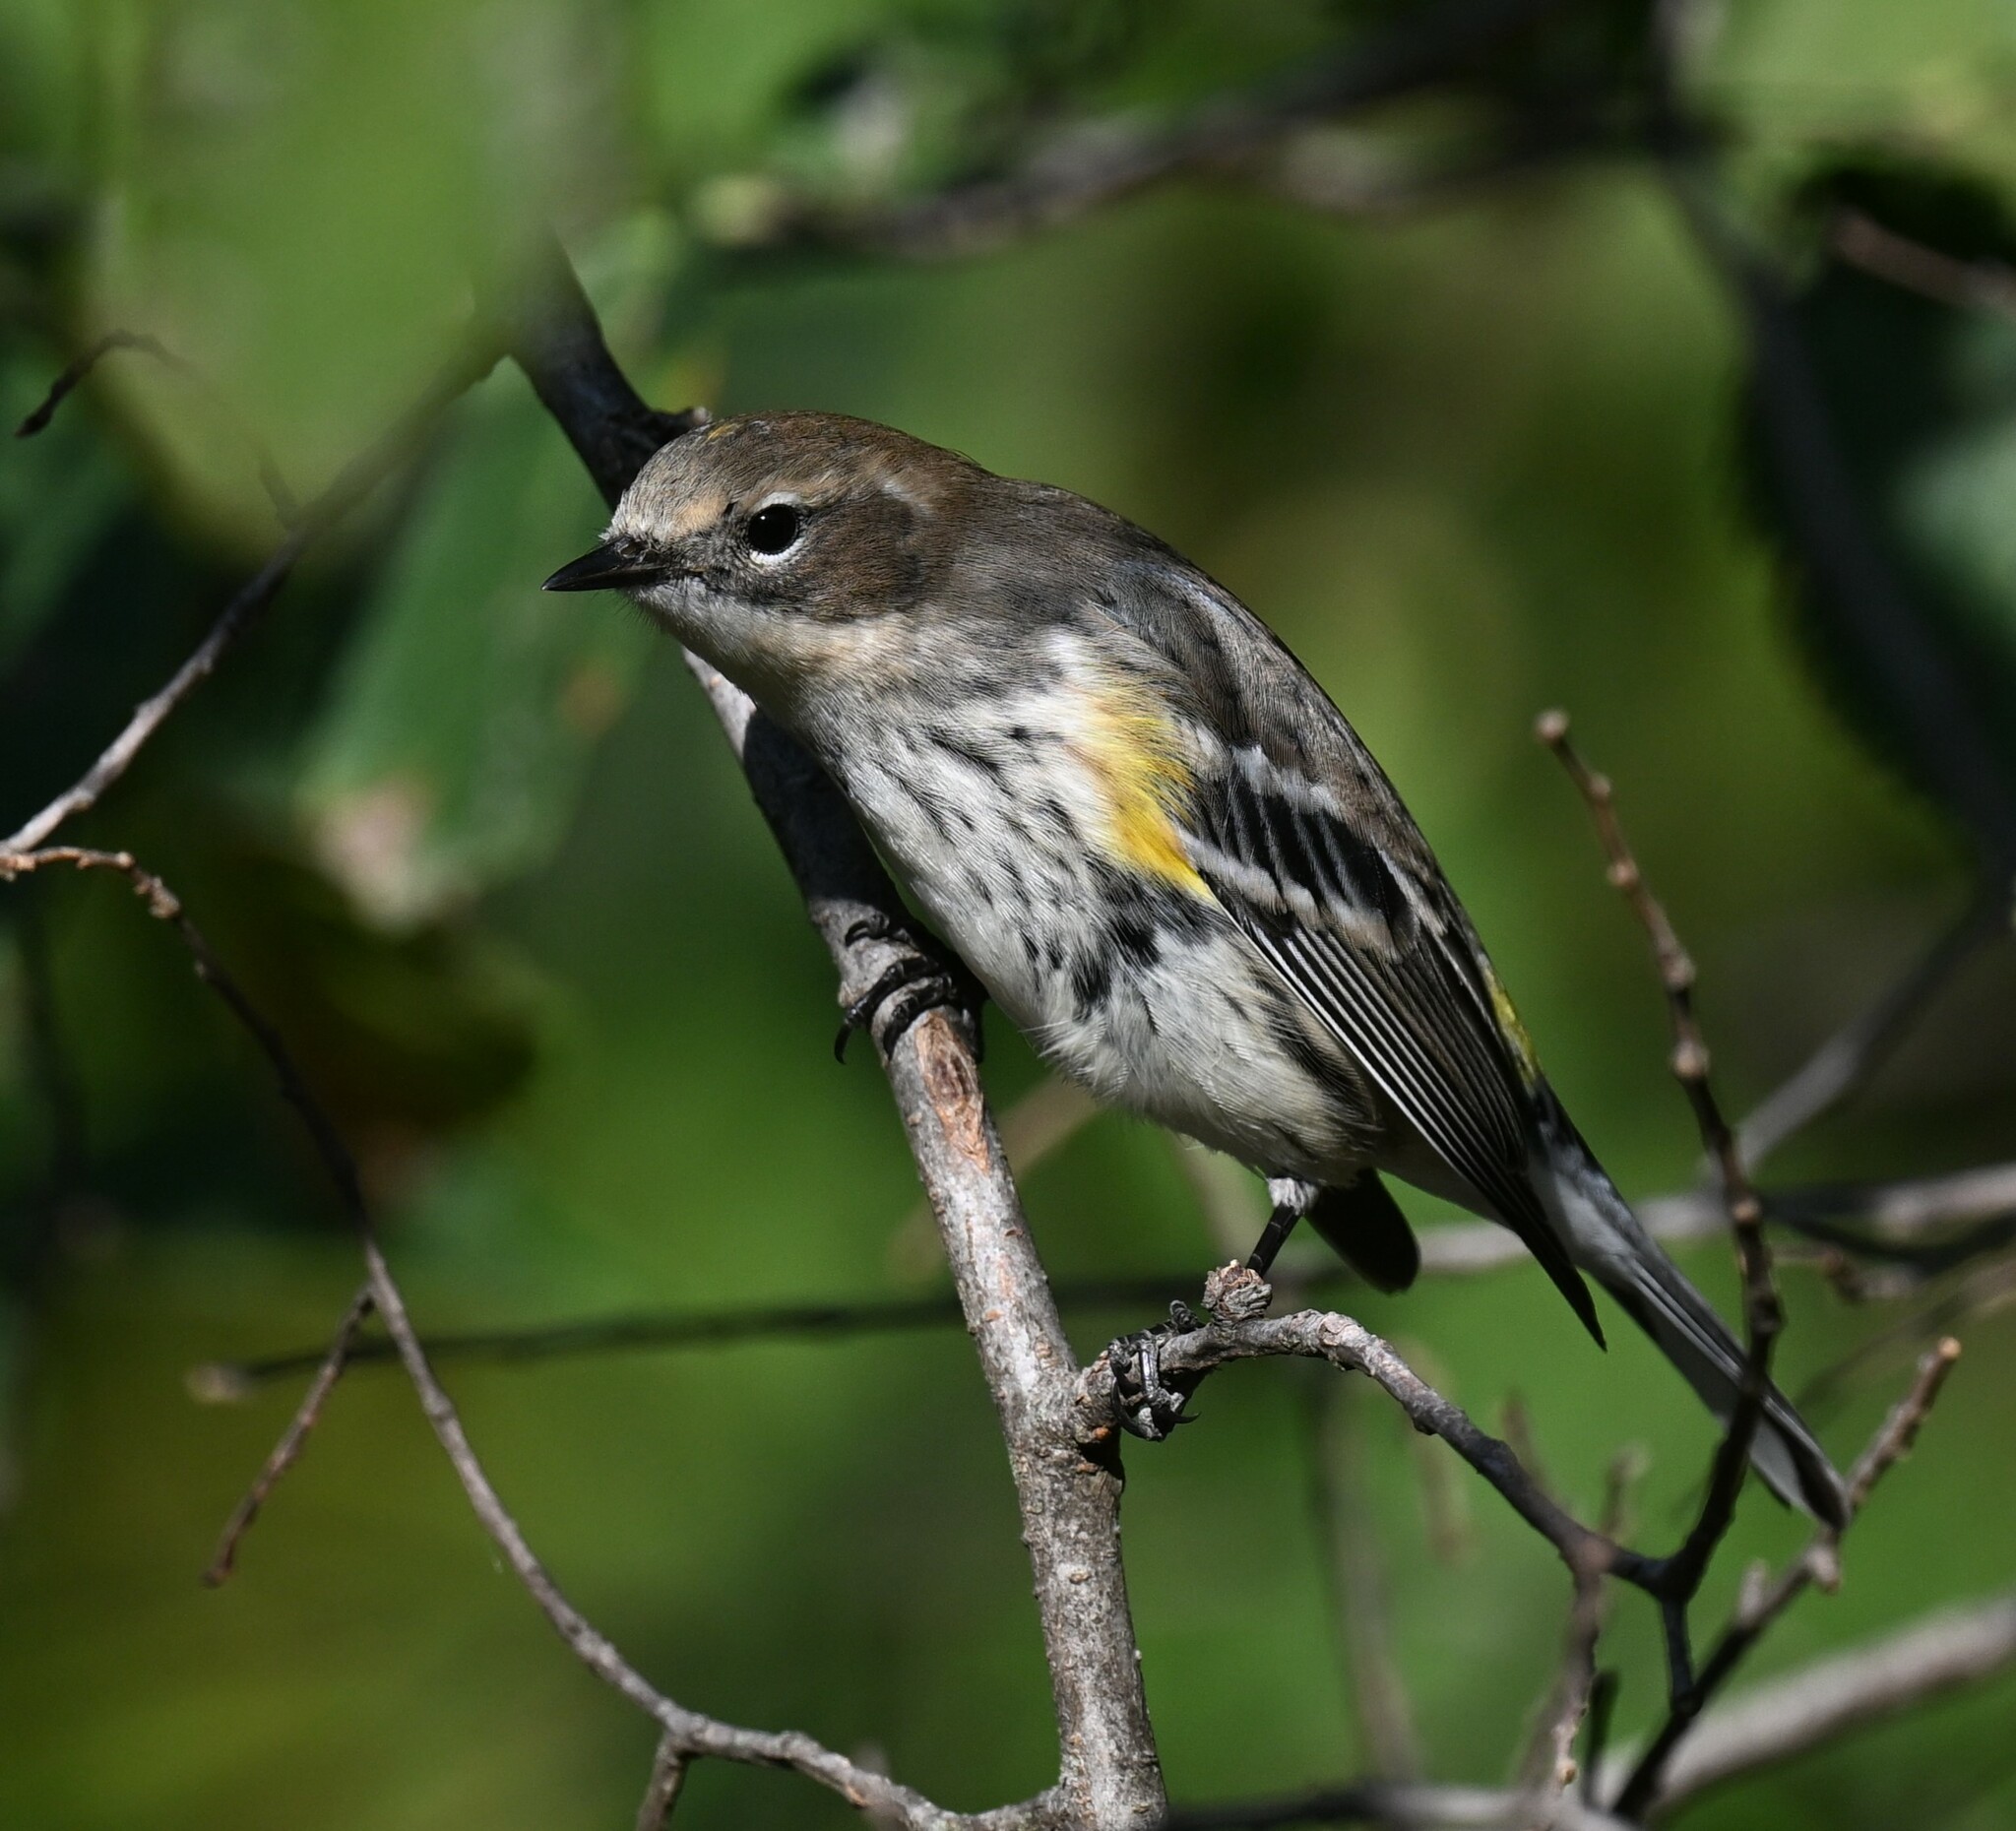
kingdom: Animalia
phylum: Chordata
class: Aves
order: Passeriformes
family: Parulidae
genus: Setophaga
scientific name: Setophaga coronata
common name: Myrtle warbler
